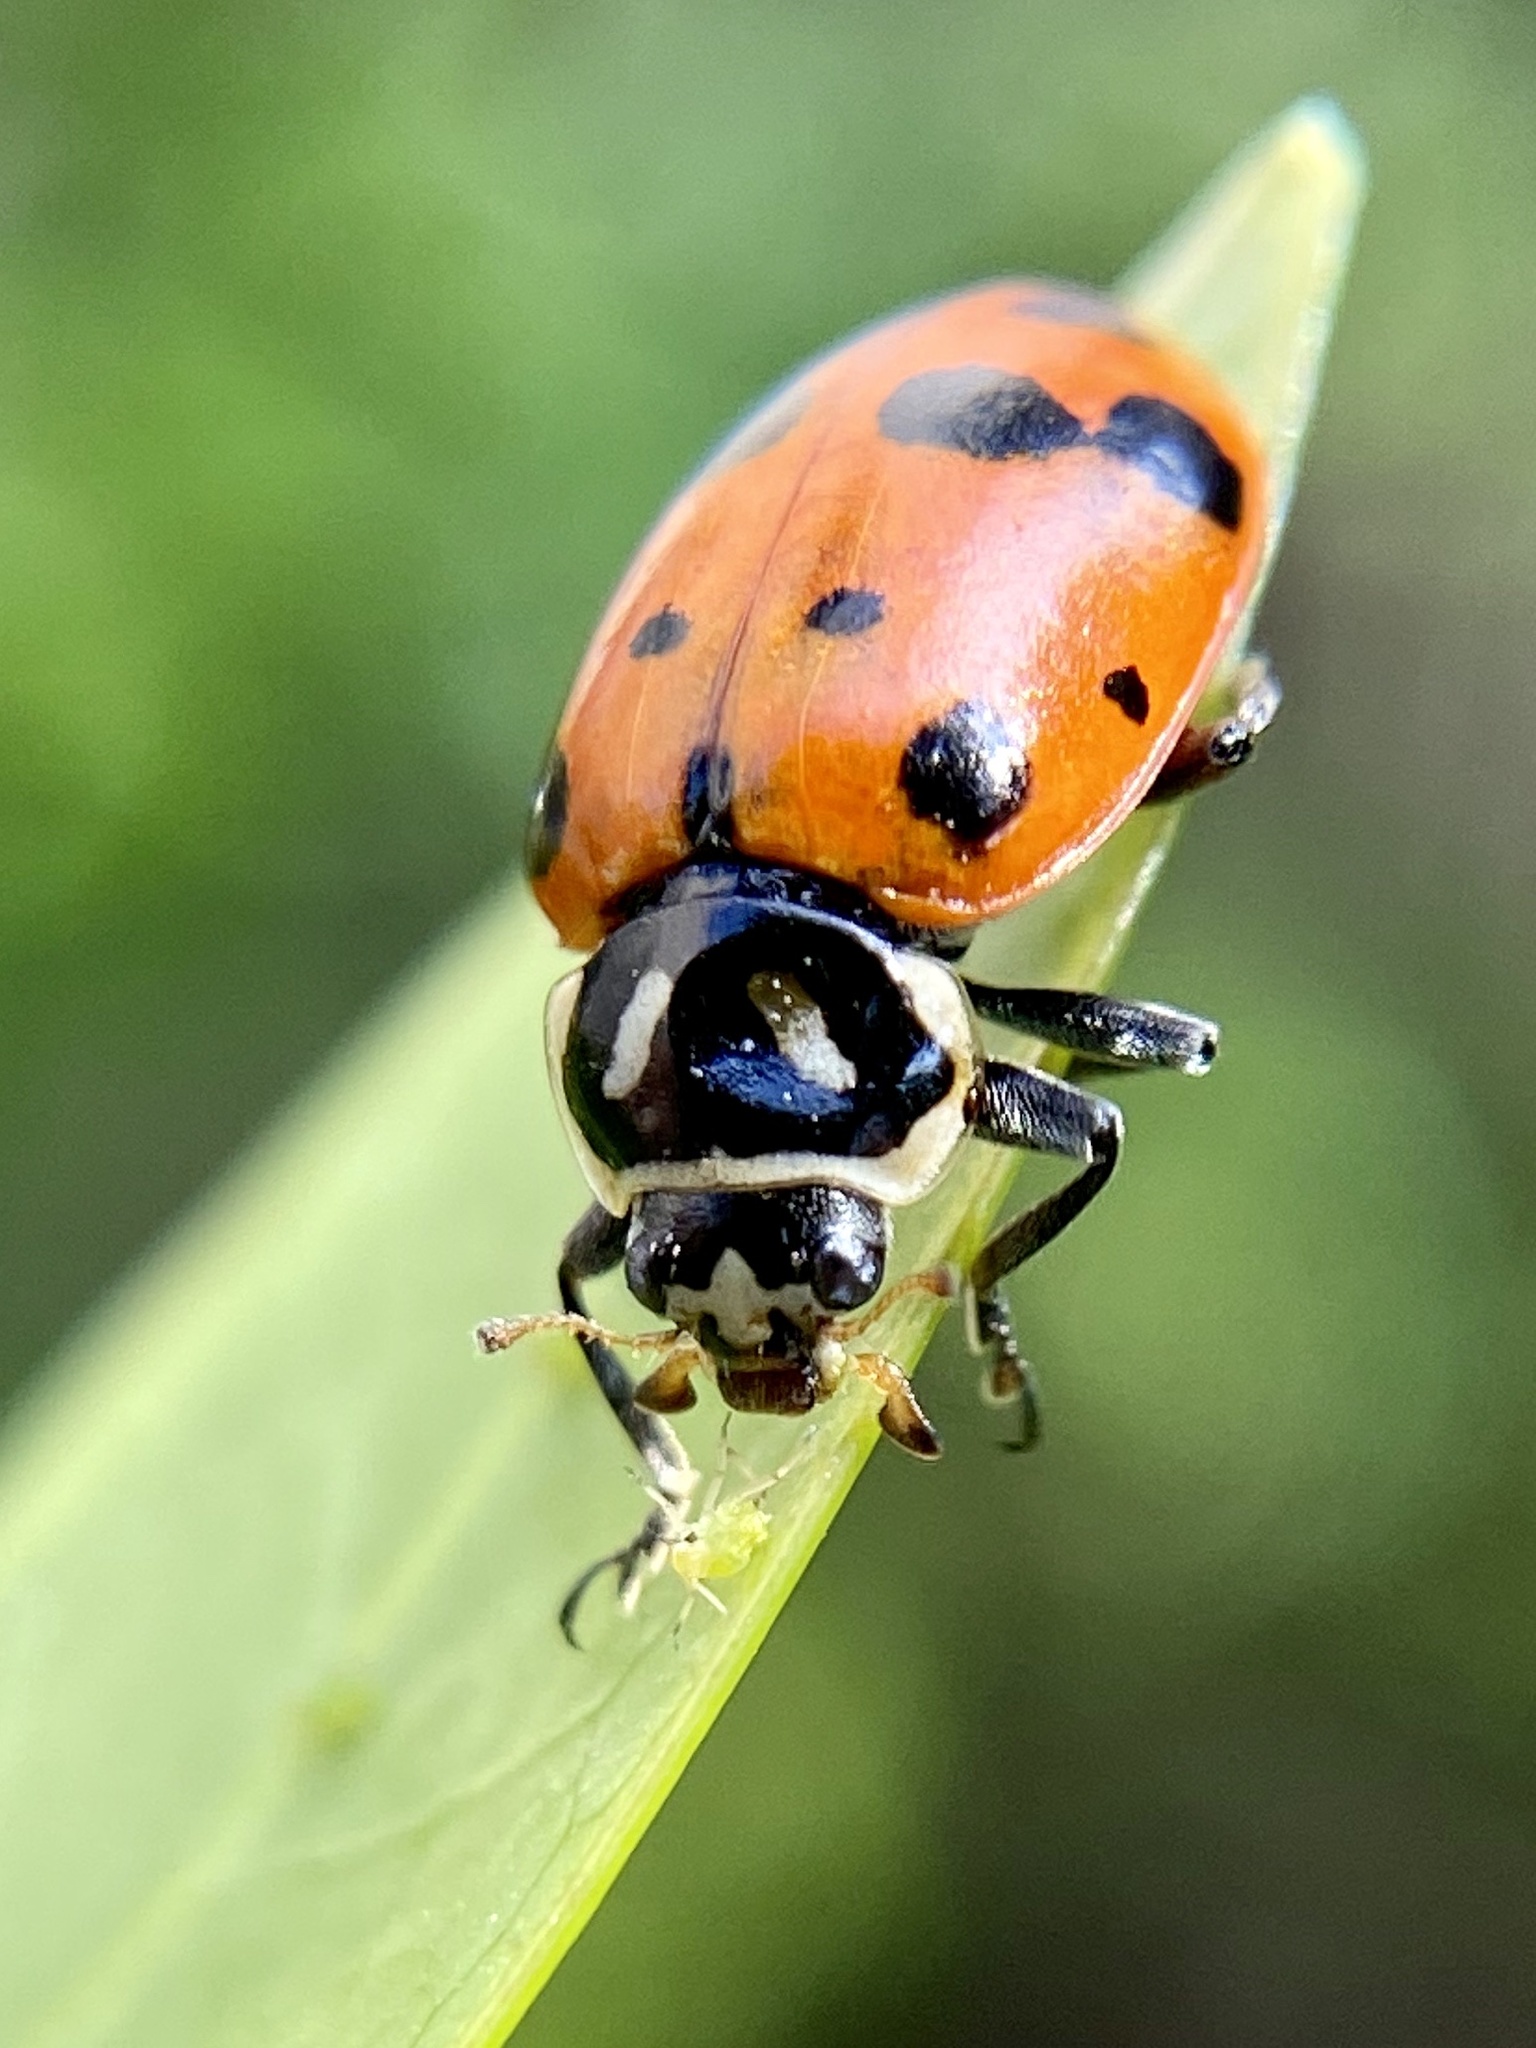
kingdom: Animalia
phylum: Arthropoda
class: Insecta
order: Coleoptera
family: Coccinellidae
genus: Hippodamia
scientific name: Hippodamia convergens
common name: Convergent lady beetle
